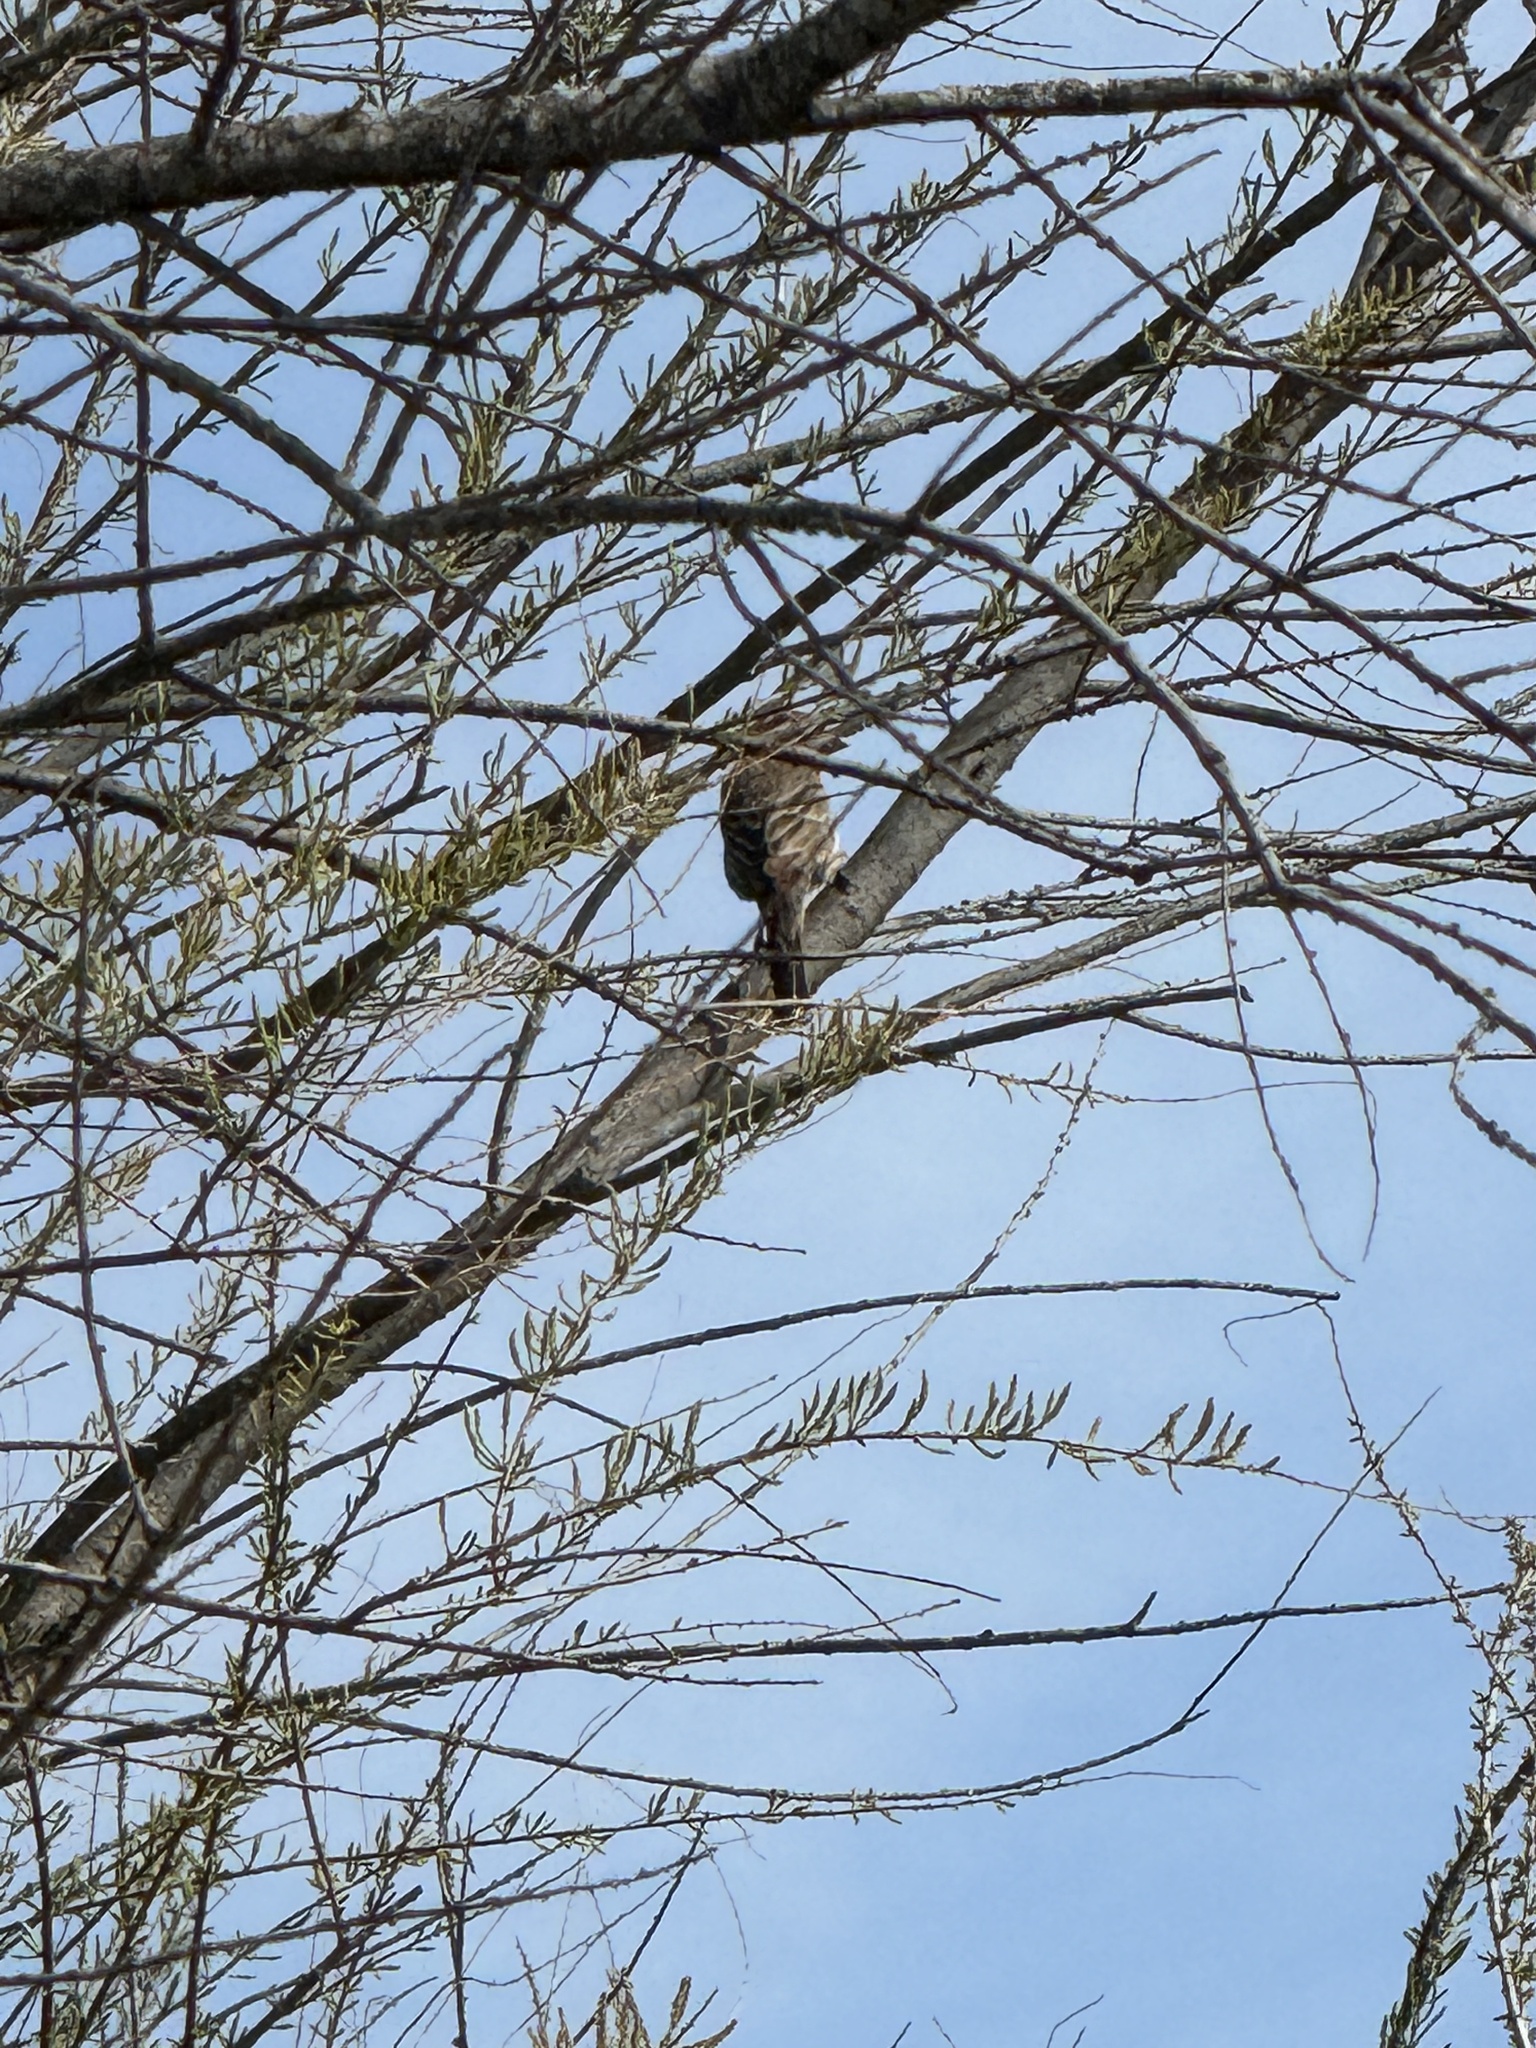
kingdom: Animalia
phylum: Chordata
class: Aves
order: Passeriformes
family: Fringillidae
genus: Haemorhous
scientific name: Haemorhous mexicanus
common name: House finch
